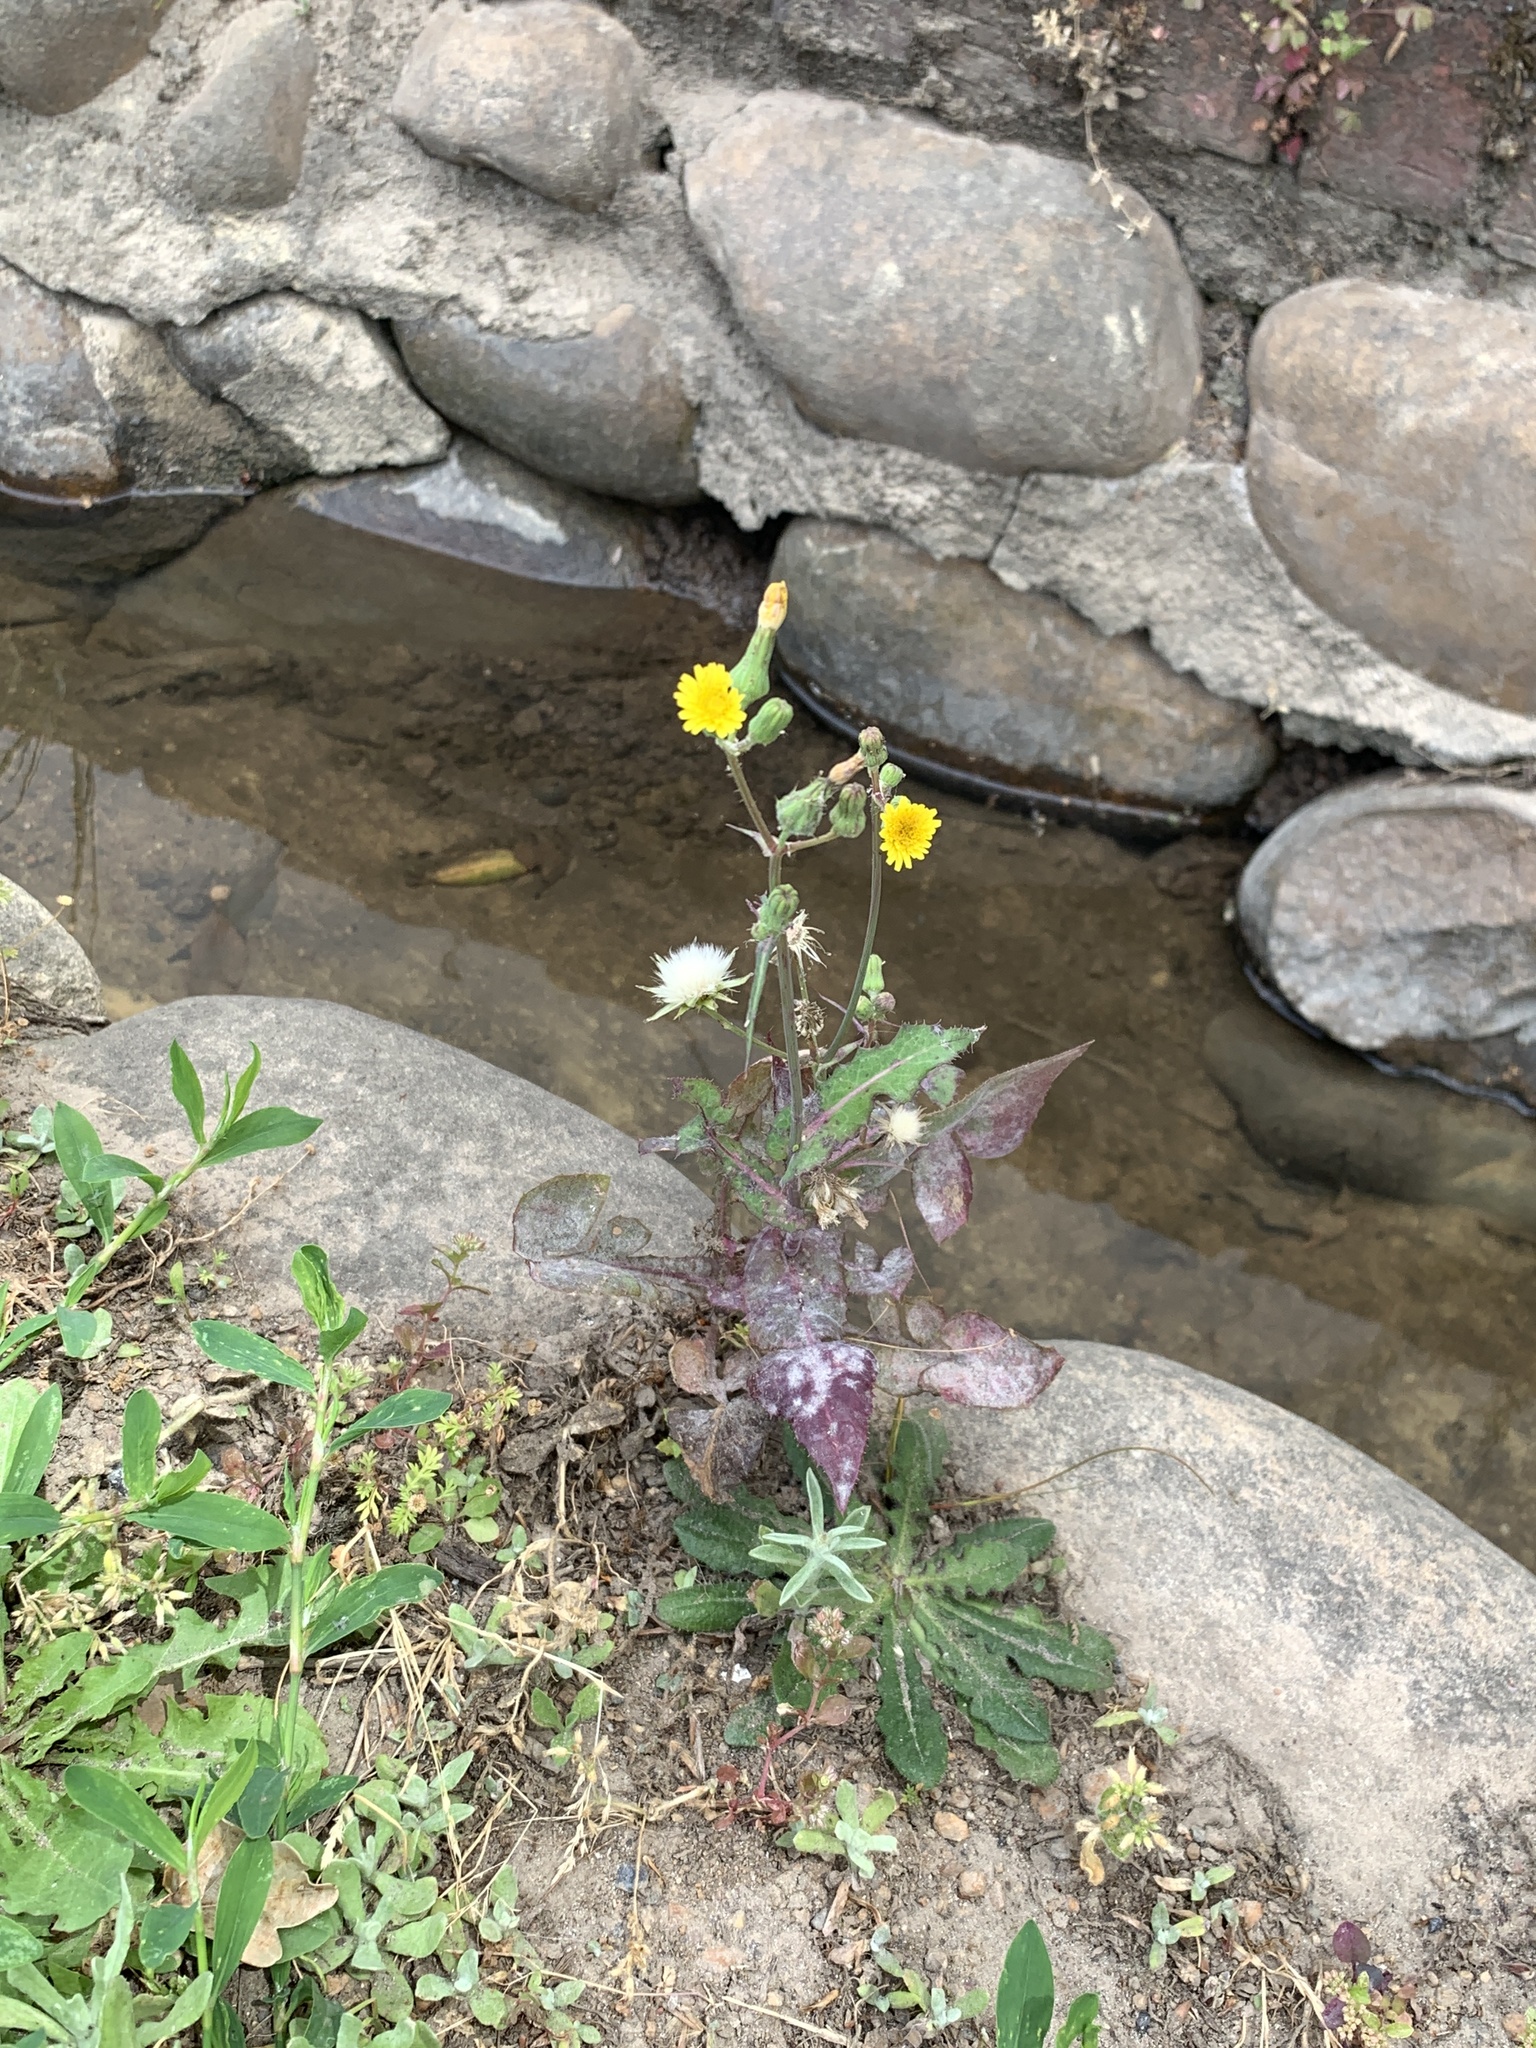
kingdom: Plantae
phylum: Tracheophyta
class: Magnoliopsida
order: Asterales
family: Asteraceae
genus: Sonchus
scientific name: Sonchus oleraceus
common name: Common sowthistle
